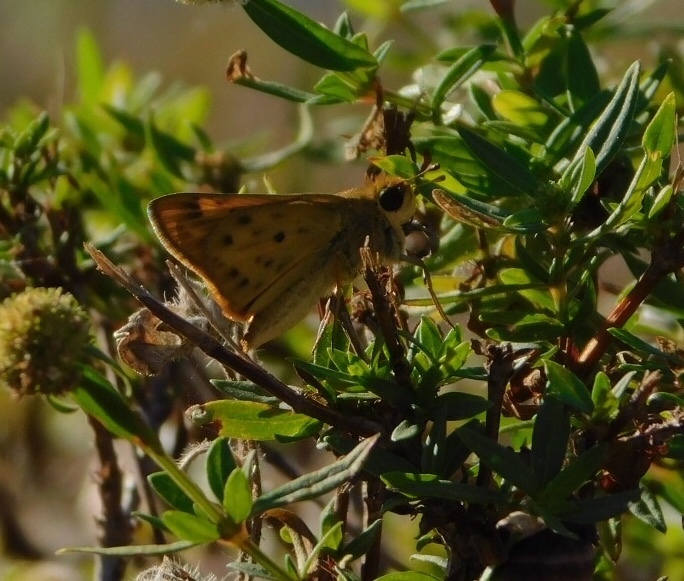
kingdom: Animalia
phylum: Arthropoda
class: Insecta
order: Lepidoptera
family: Hesperiidae
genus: Hylephila
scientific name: Hylephila phyleus
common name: Fiery skipper
